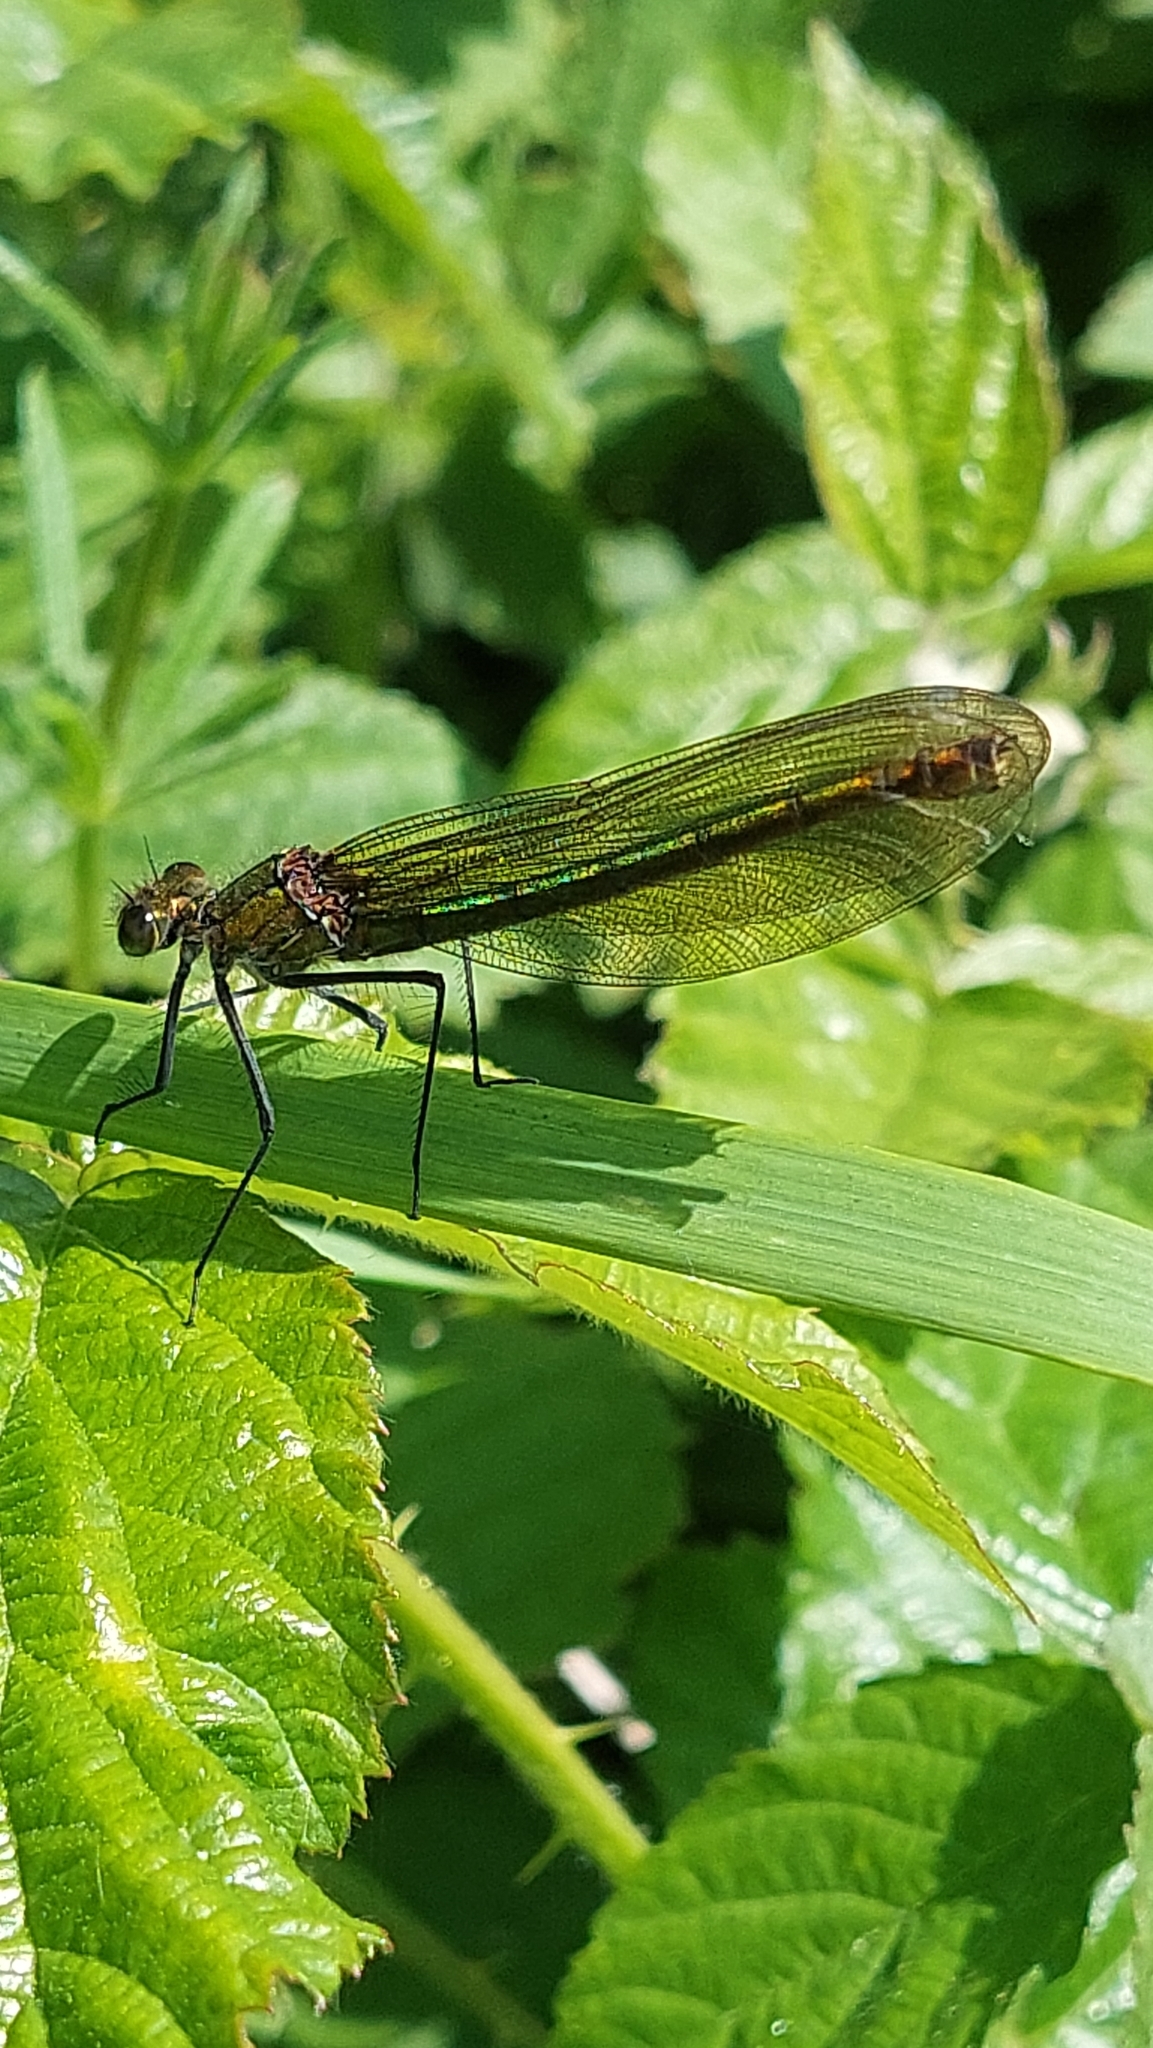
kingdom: Animalia
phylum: Arthropoda
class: Insecta
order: Odonata
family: Calopterygidae
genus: Calopteryx
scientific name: Calopteryx splendens
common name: Banded demoiselle
